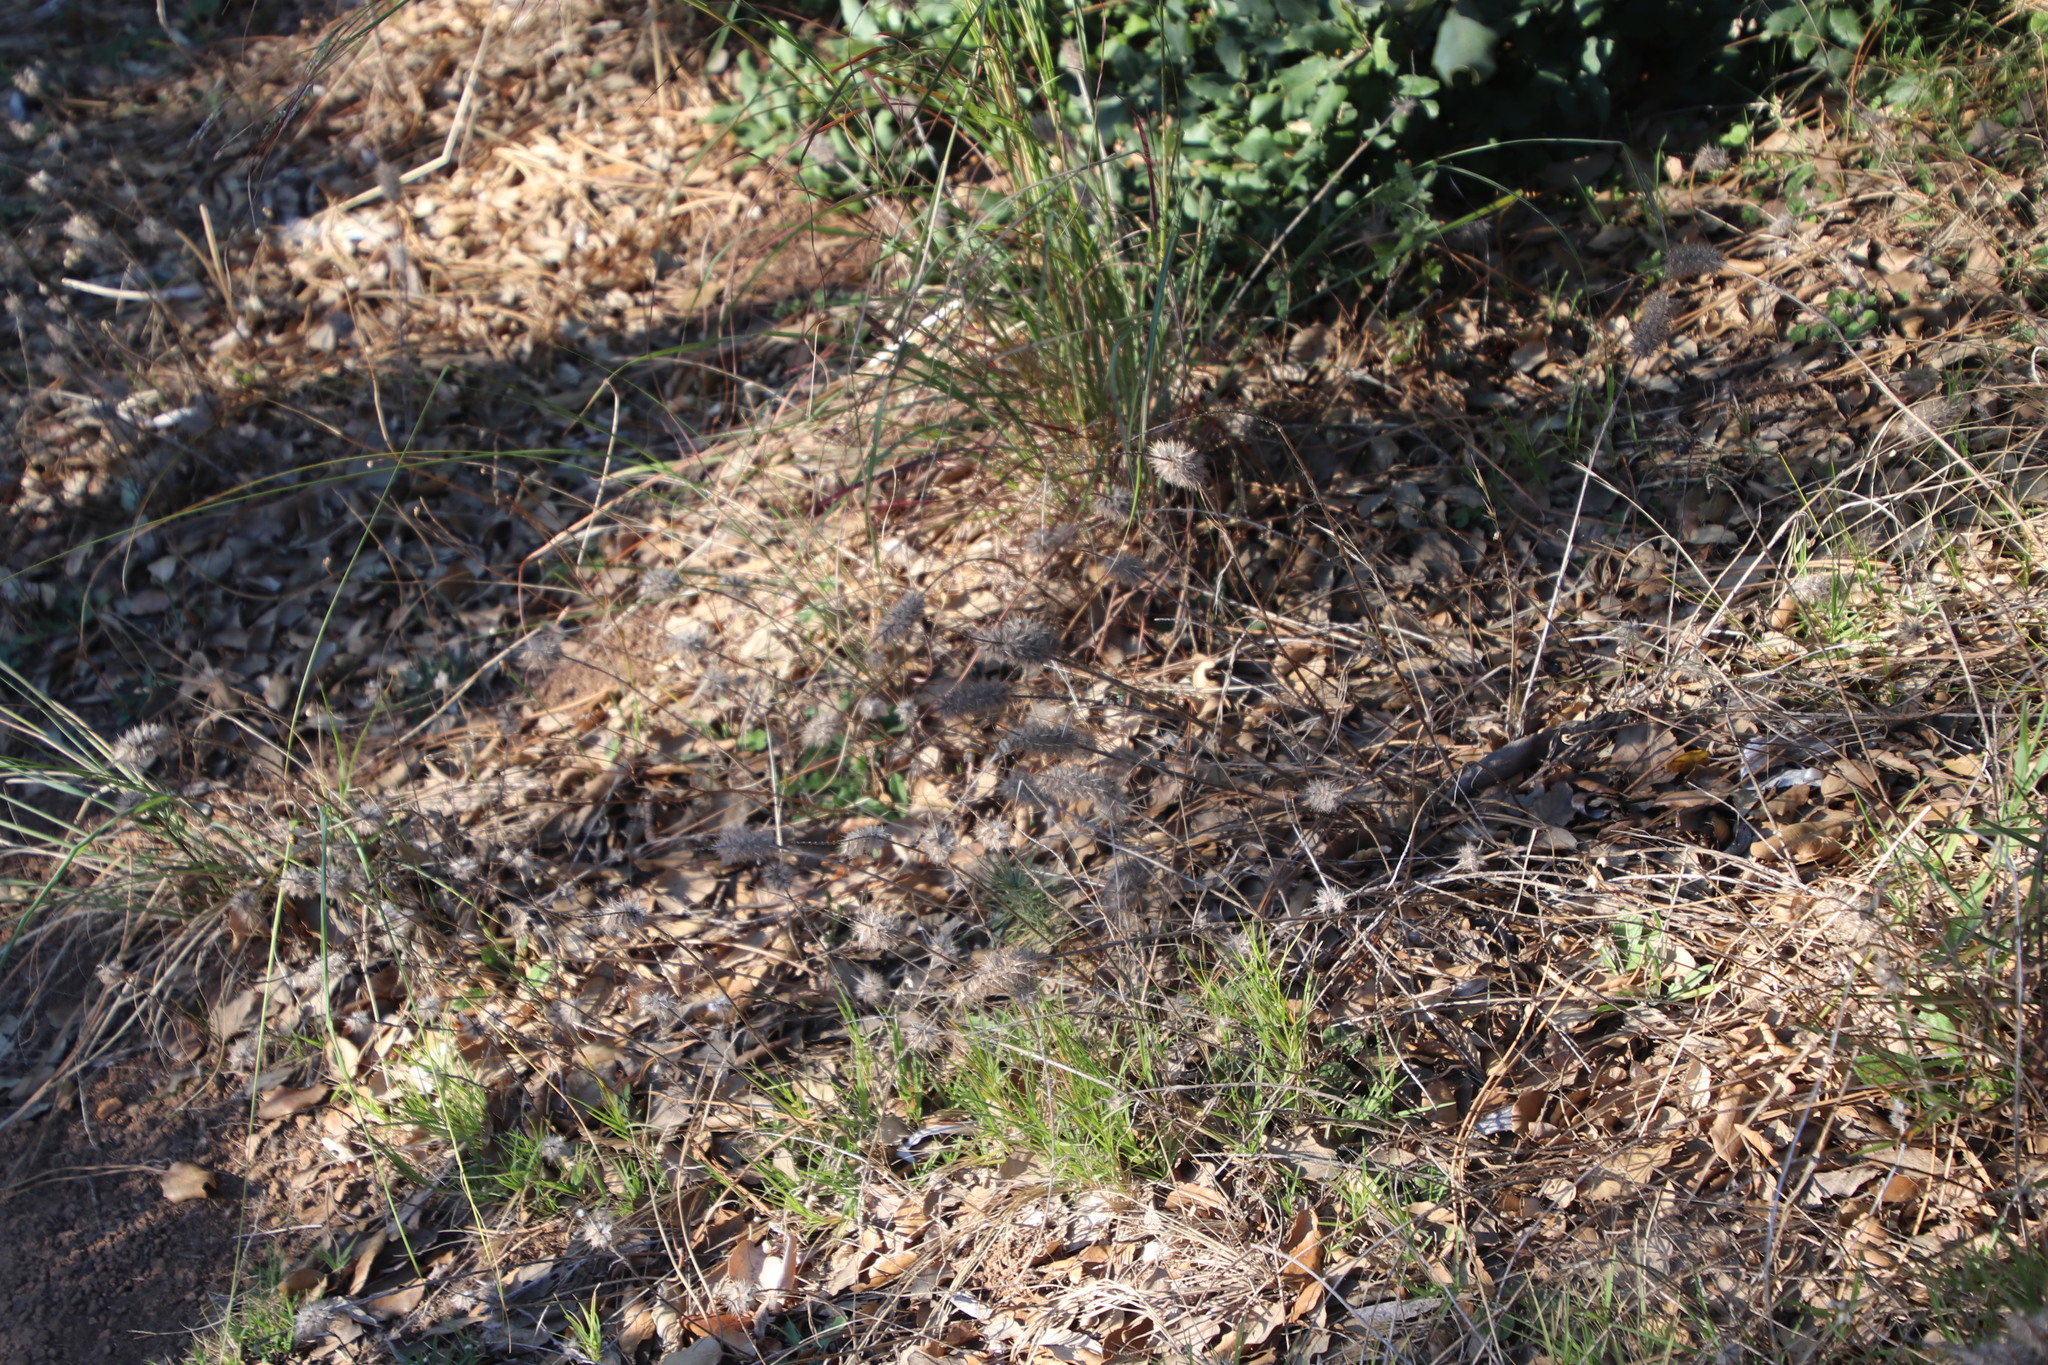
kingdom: Plantae
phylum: Tracheophyta
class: Magnoliopsida
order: Fabales
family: Fabaceae
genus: Trifolium
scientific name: Trifolium arvense
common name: Hare's-foot clover
